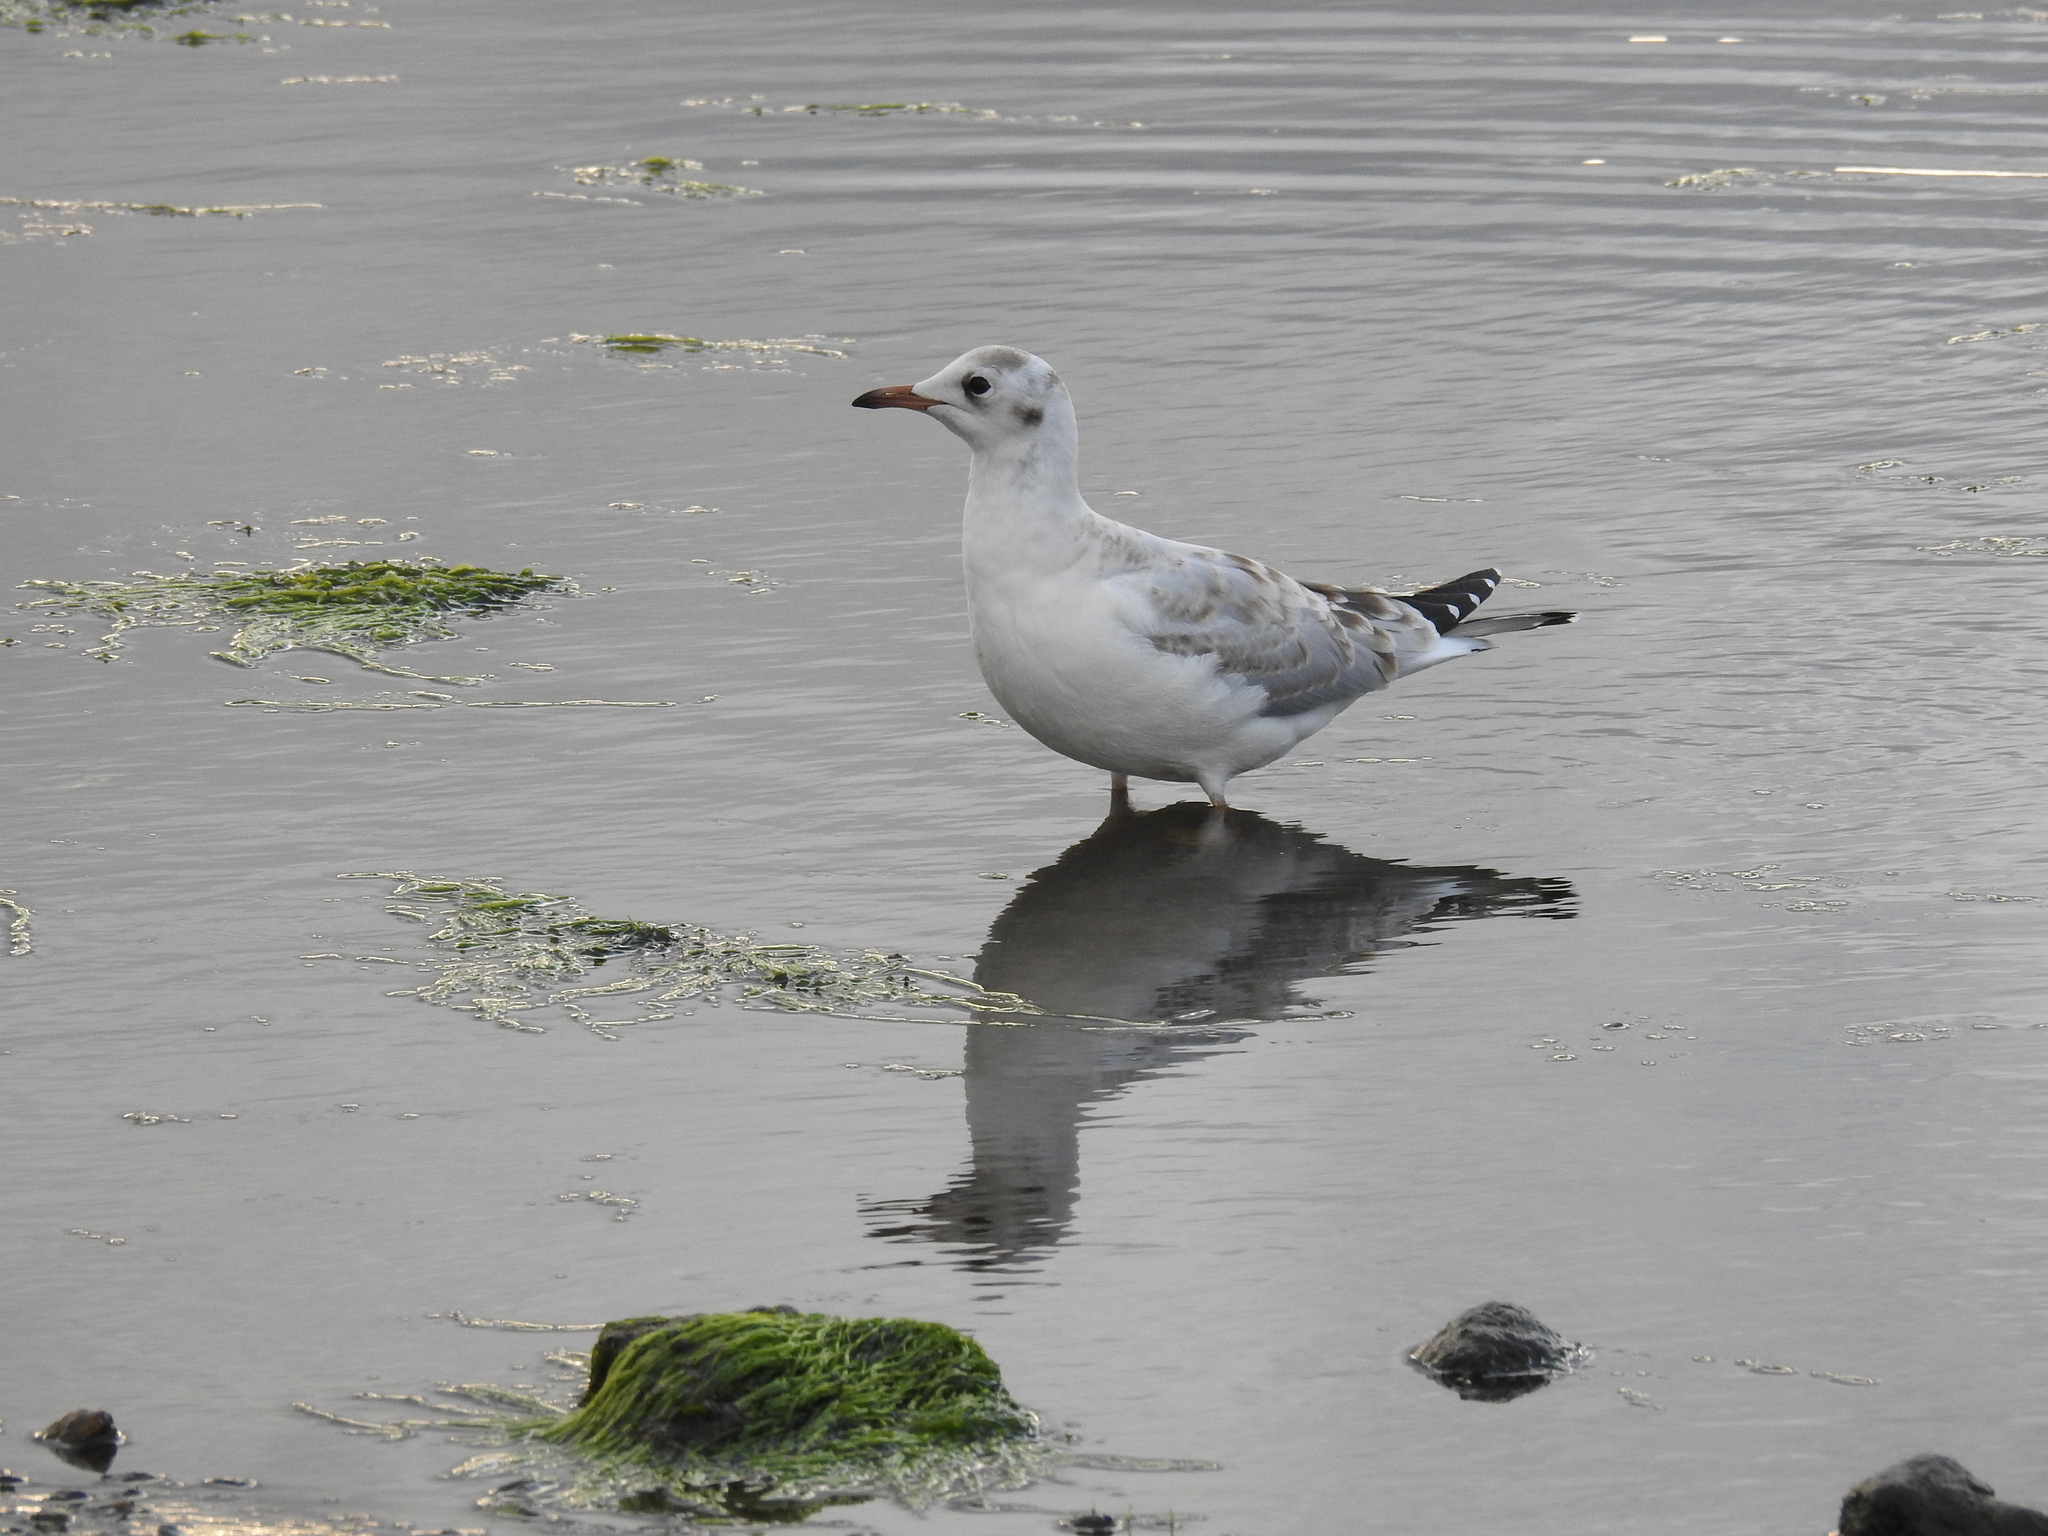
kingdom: Animalia
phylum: Chordata
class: Aves
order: Charadriiformes
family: Laridae
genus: Chroicocephalus
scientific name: Chroicocephalus maculipennis
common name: Brown-hooded gull
